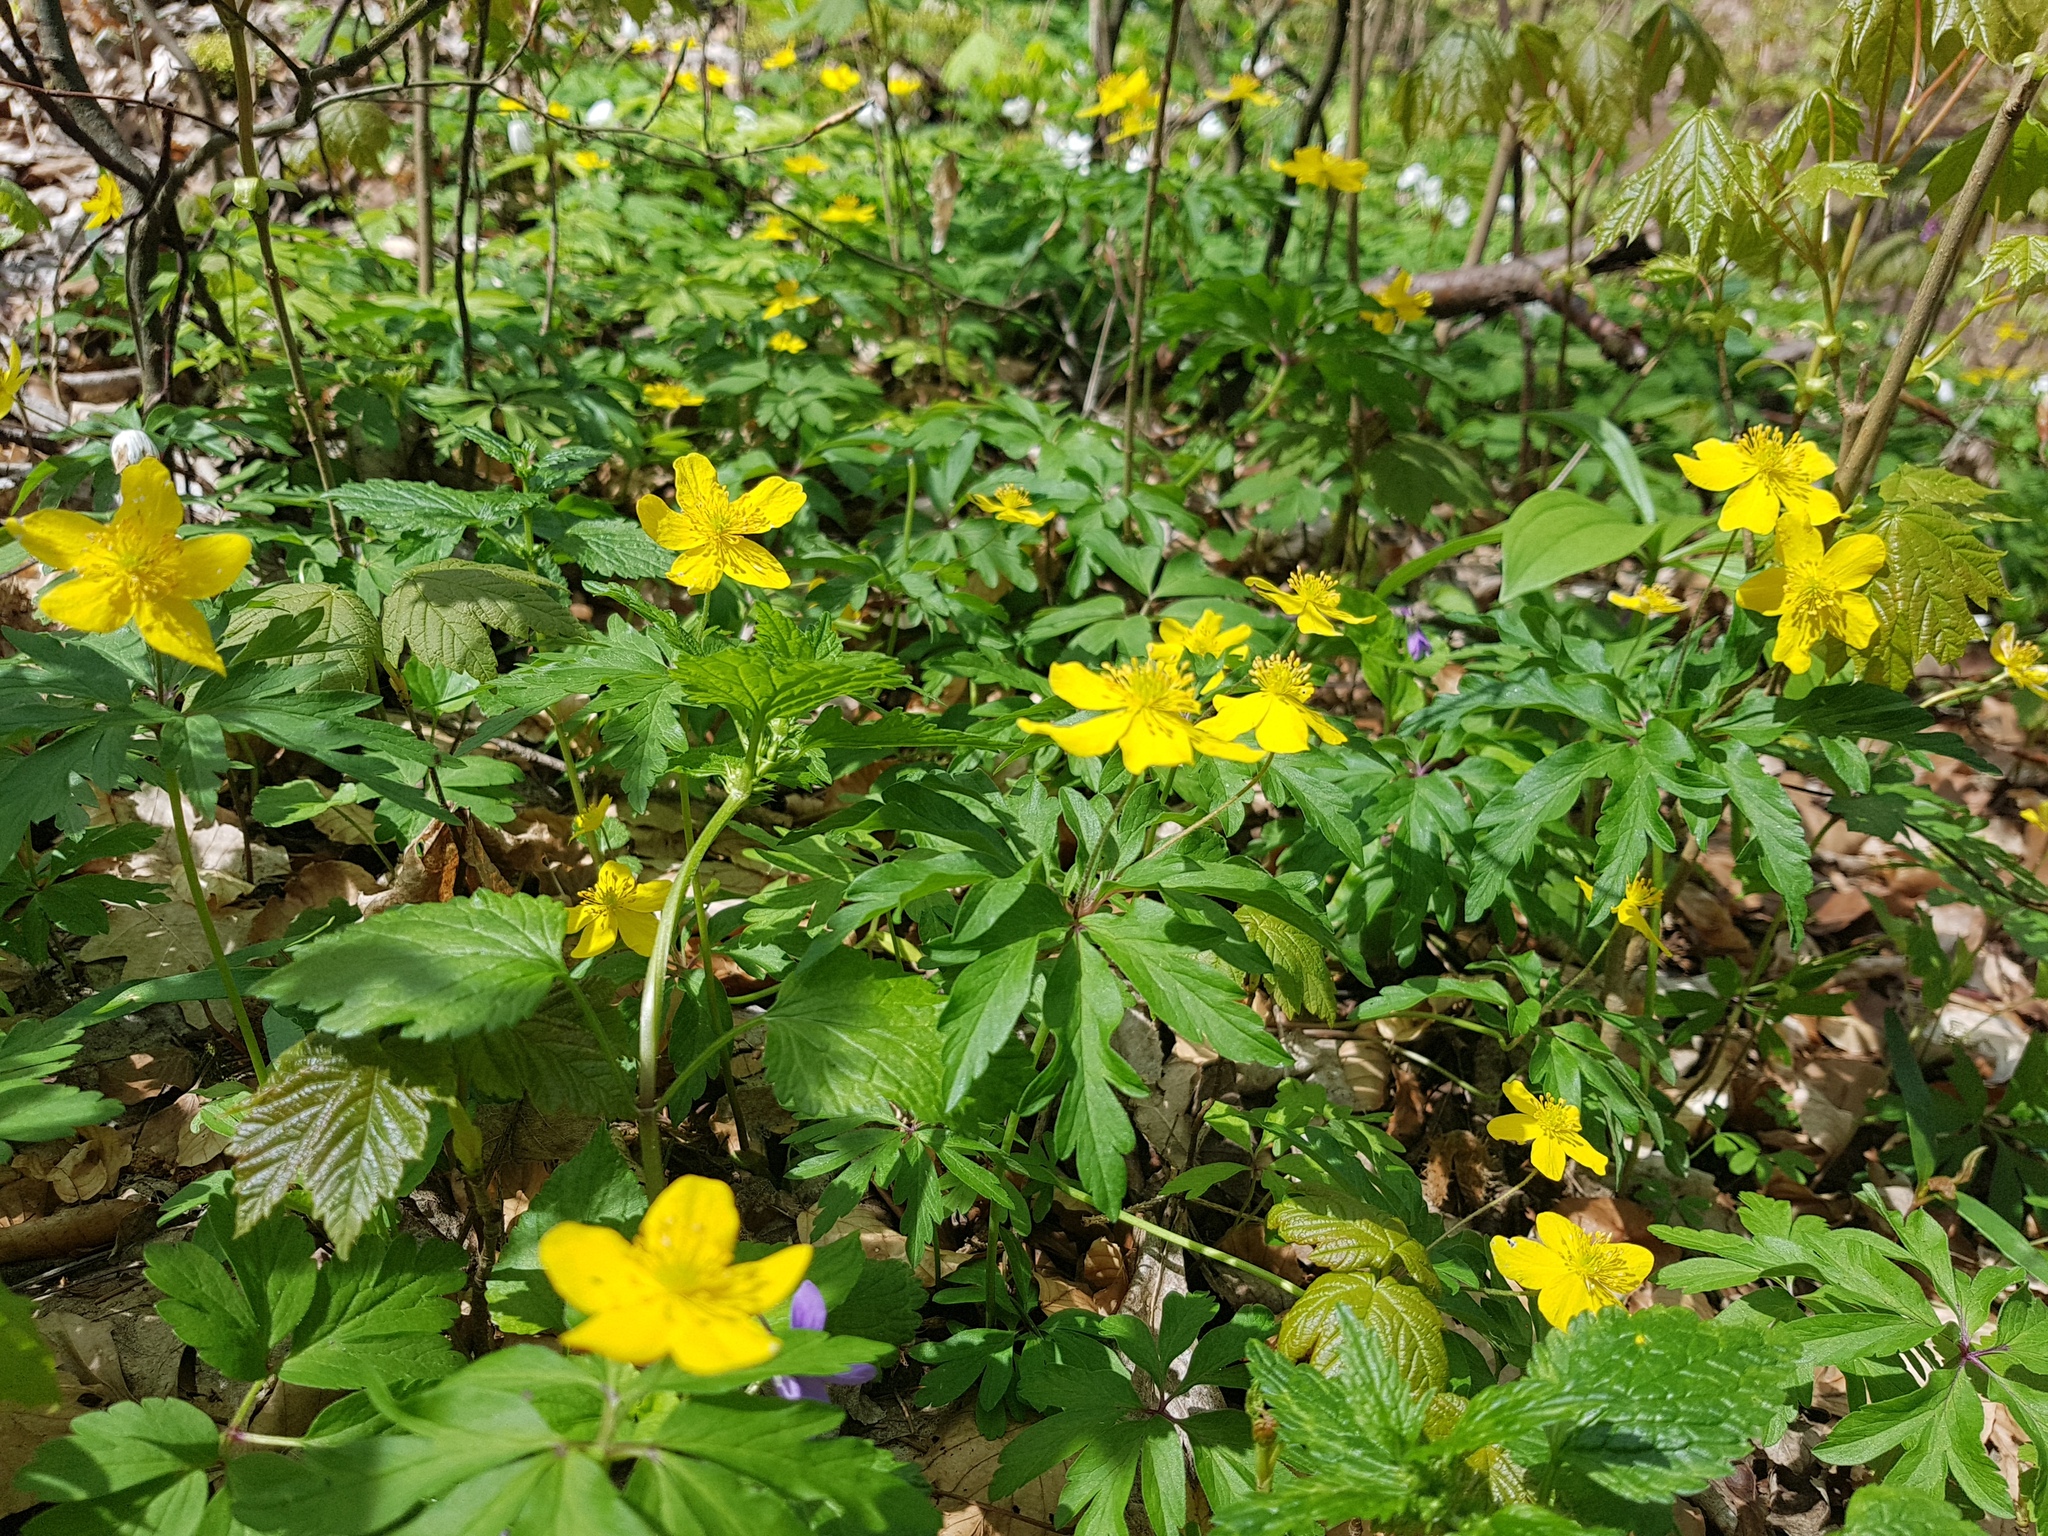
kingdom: Plantae
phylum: Tracheophyta
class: Magnoliopsida
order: Ranunculales
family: Ranunculaceae
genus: Anemone
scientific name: Anemone ranunculoides
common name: Yellow anemone
